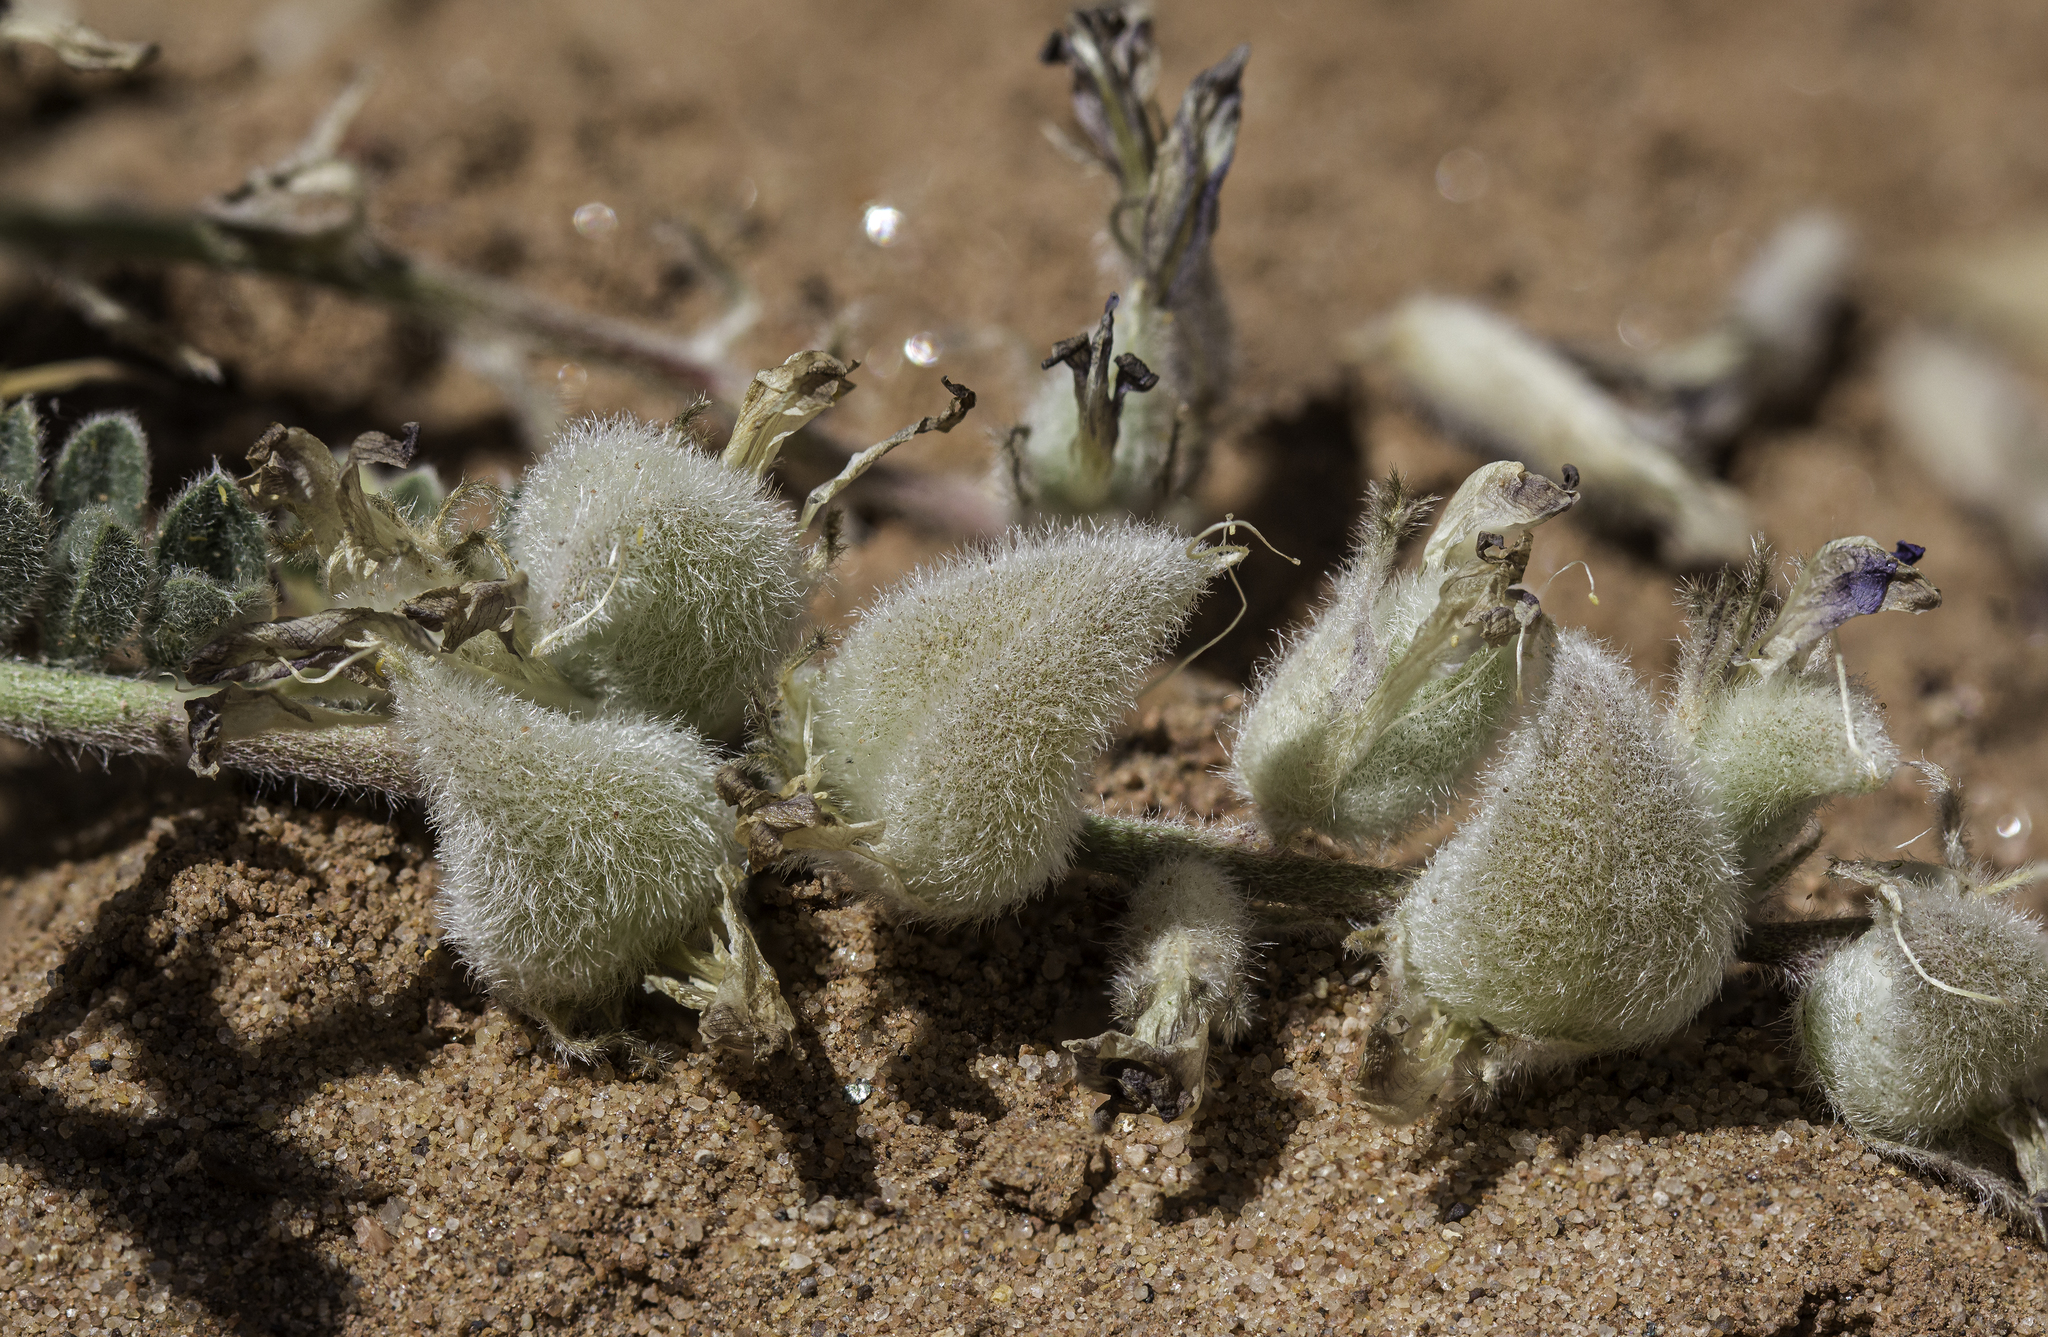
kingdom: Plantae
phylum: Tracheophyta
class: Magnoliopsida
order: Fabales
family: Fabaceae
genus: Astragalus
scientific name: Astragalus mollissimus
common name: Woolly locoweed
